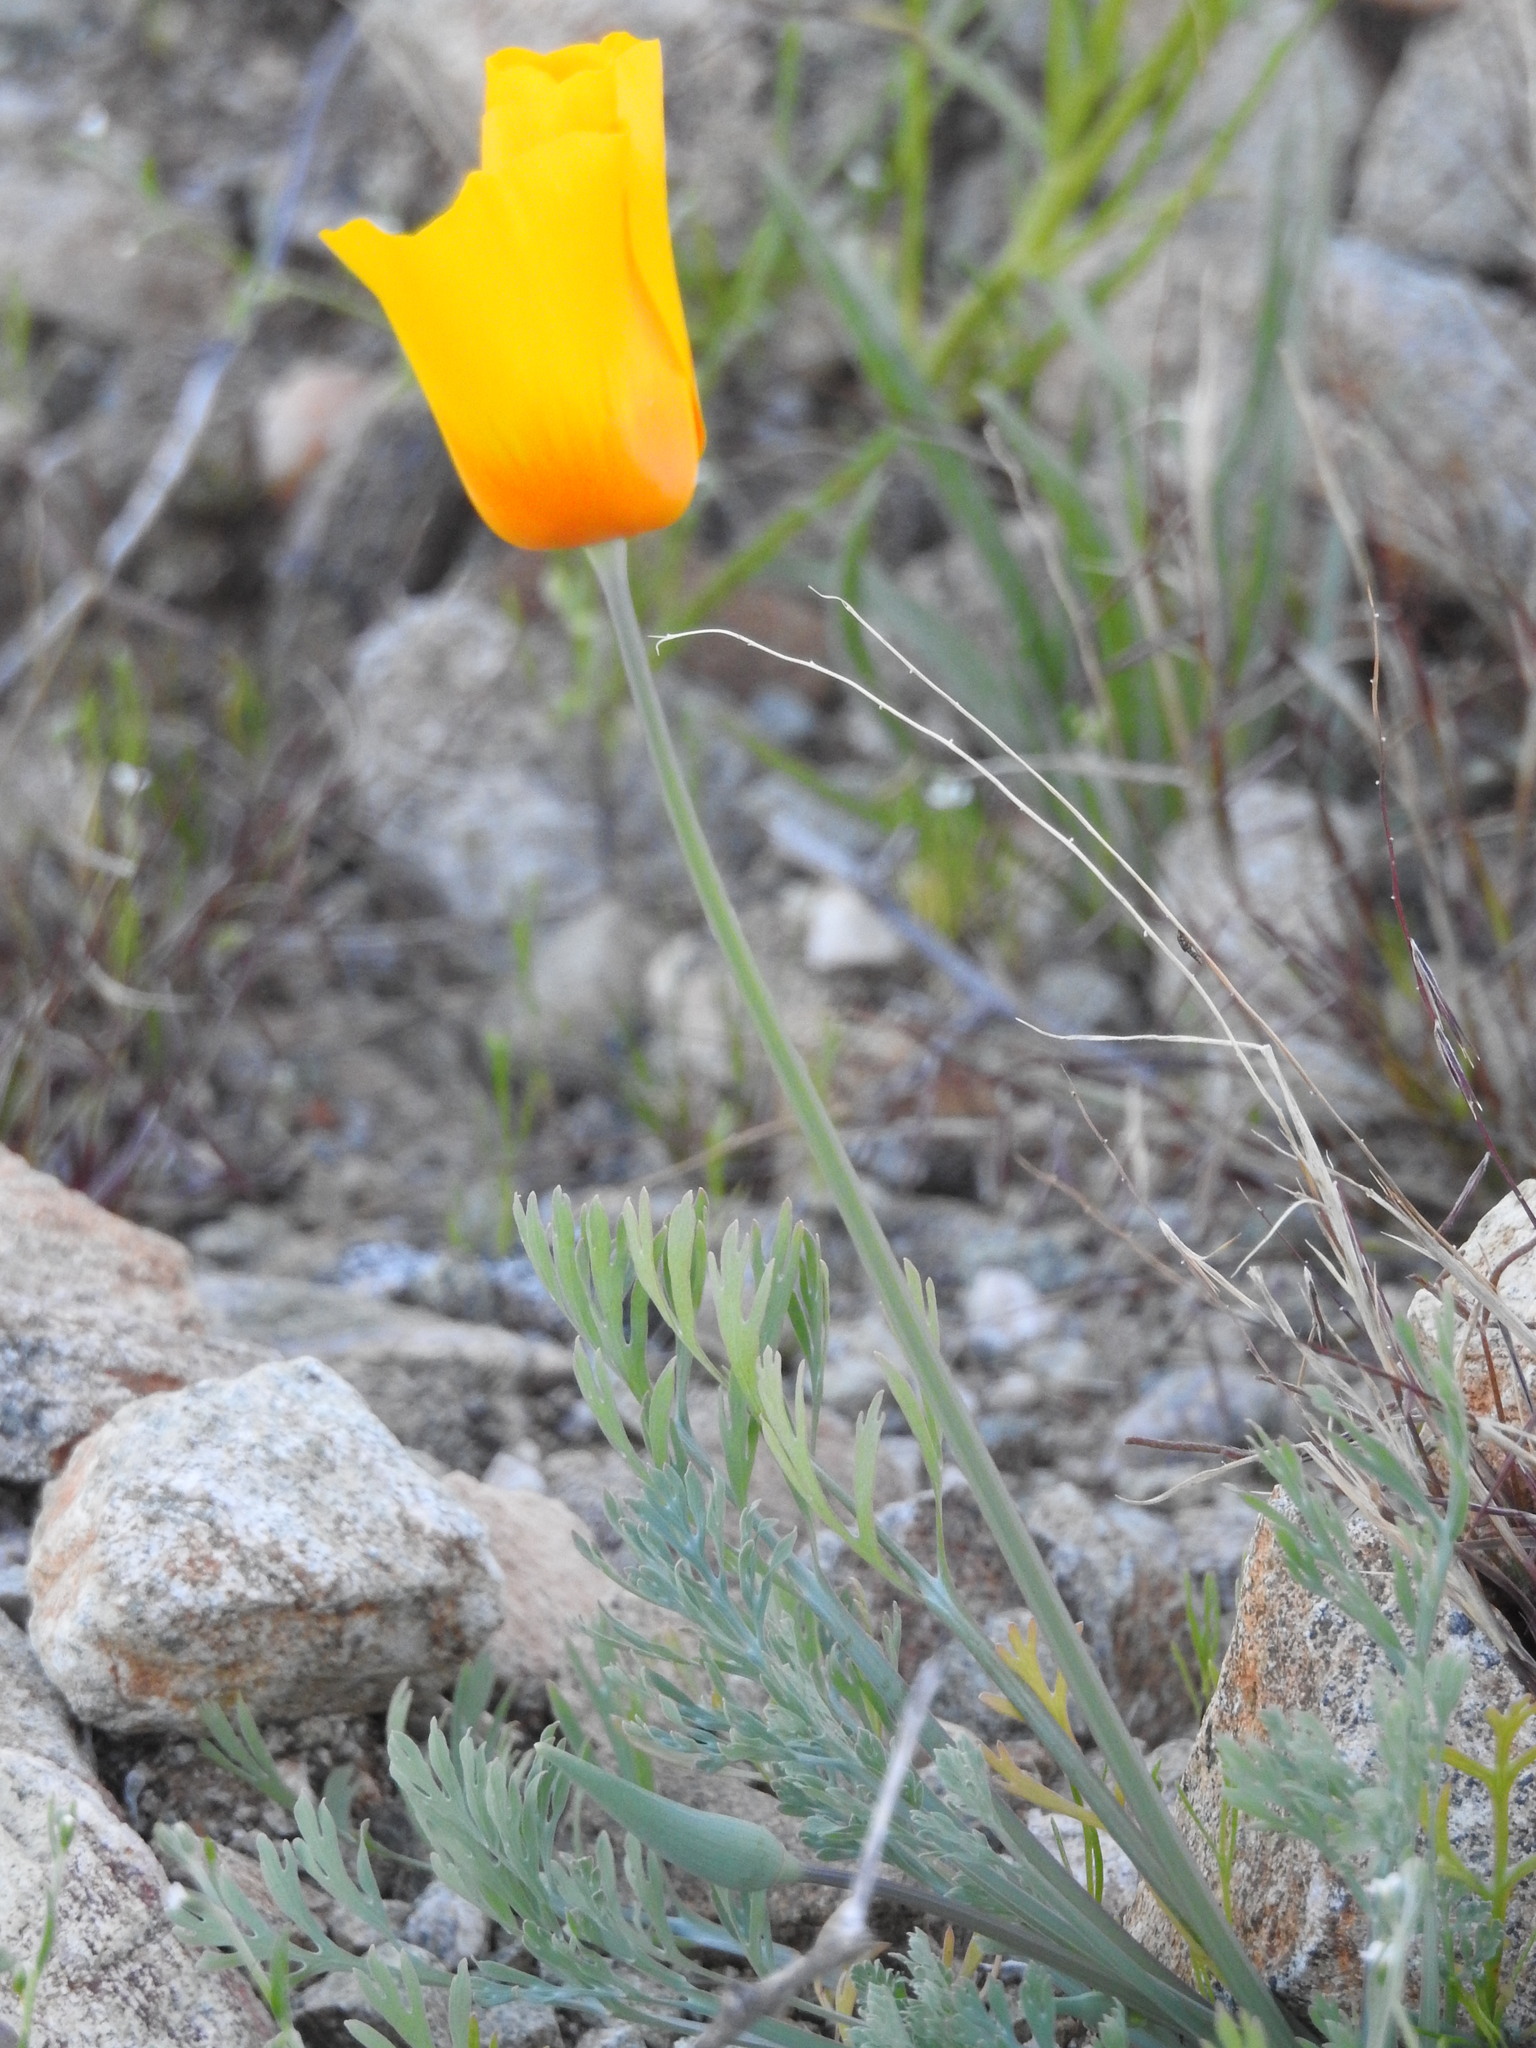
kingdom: Plantae
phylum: Tracheophyta
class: Magnoliopsida
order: Ranunculales
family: Papaveraceae
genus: Eschscholzia
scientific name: Eschscholzia californica
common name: California poppy
